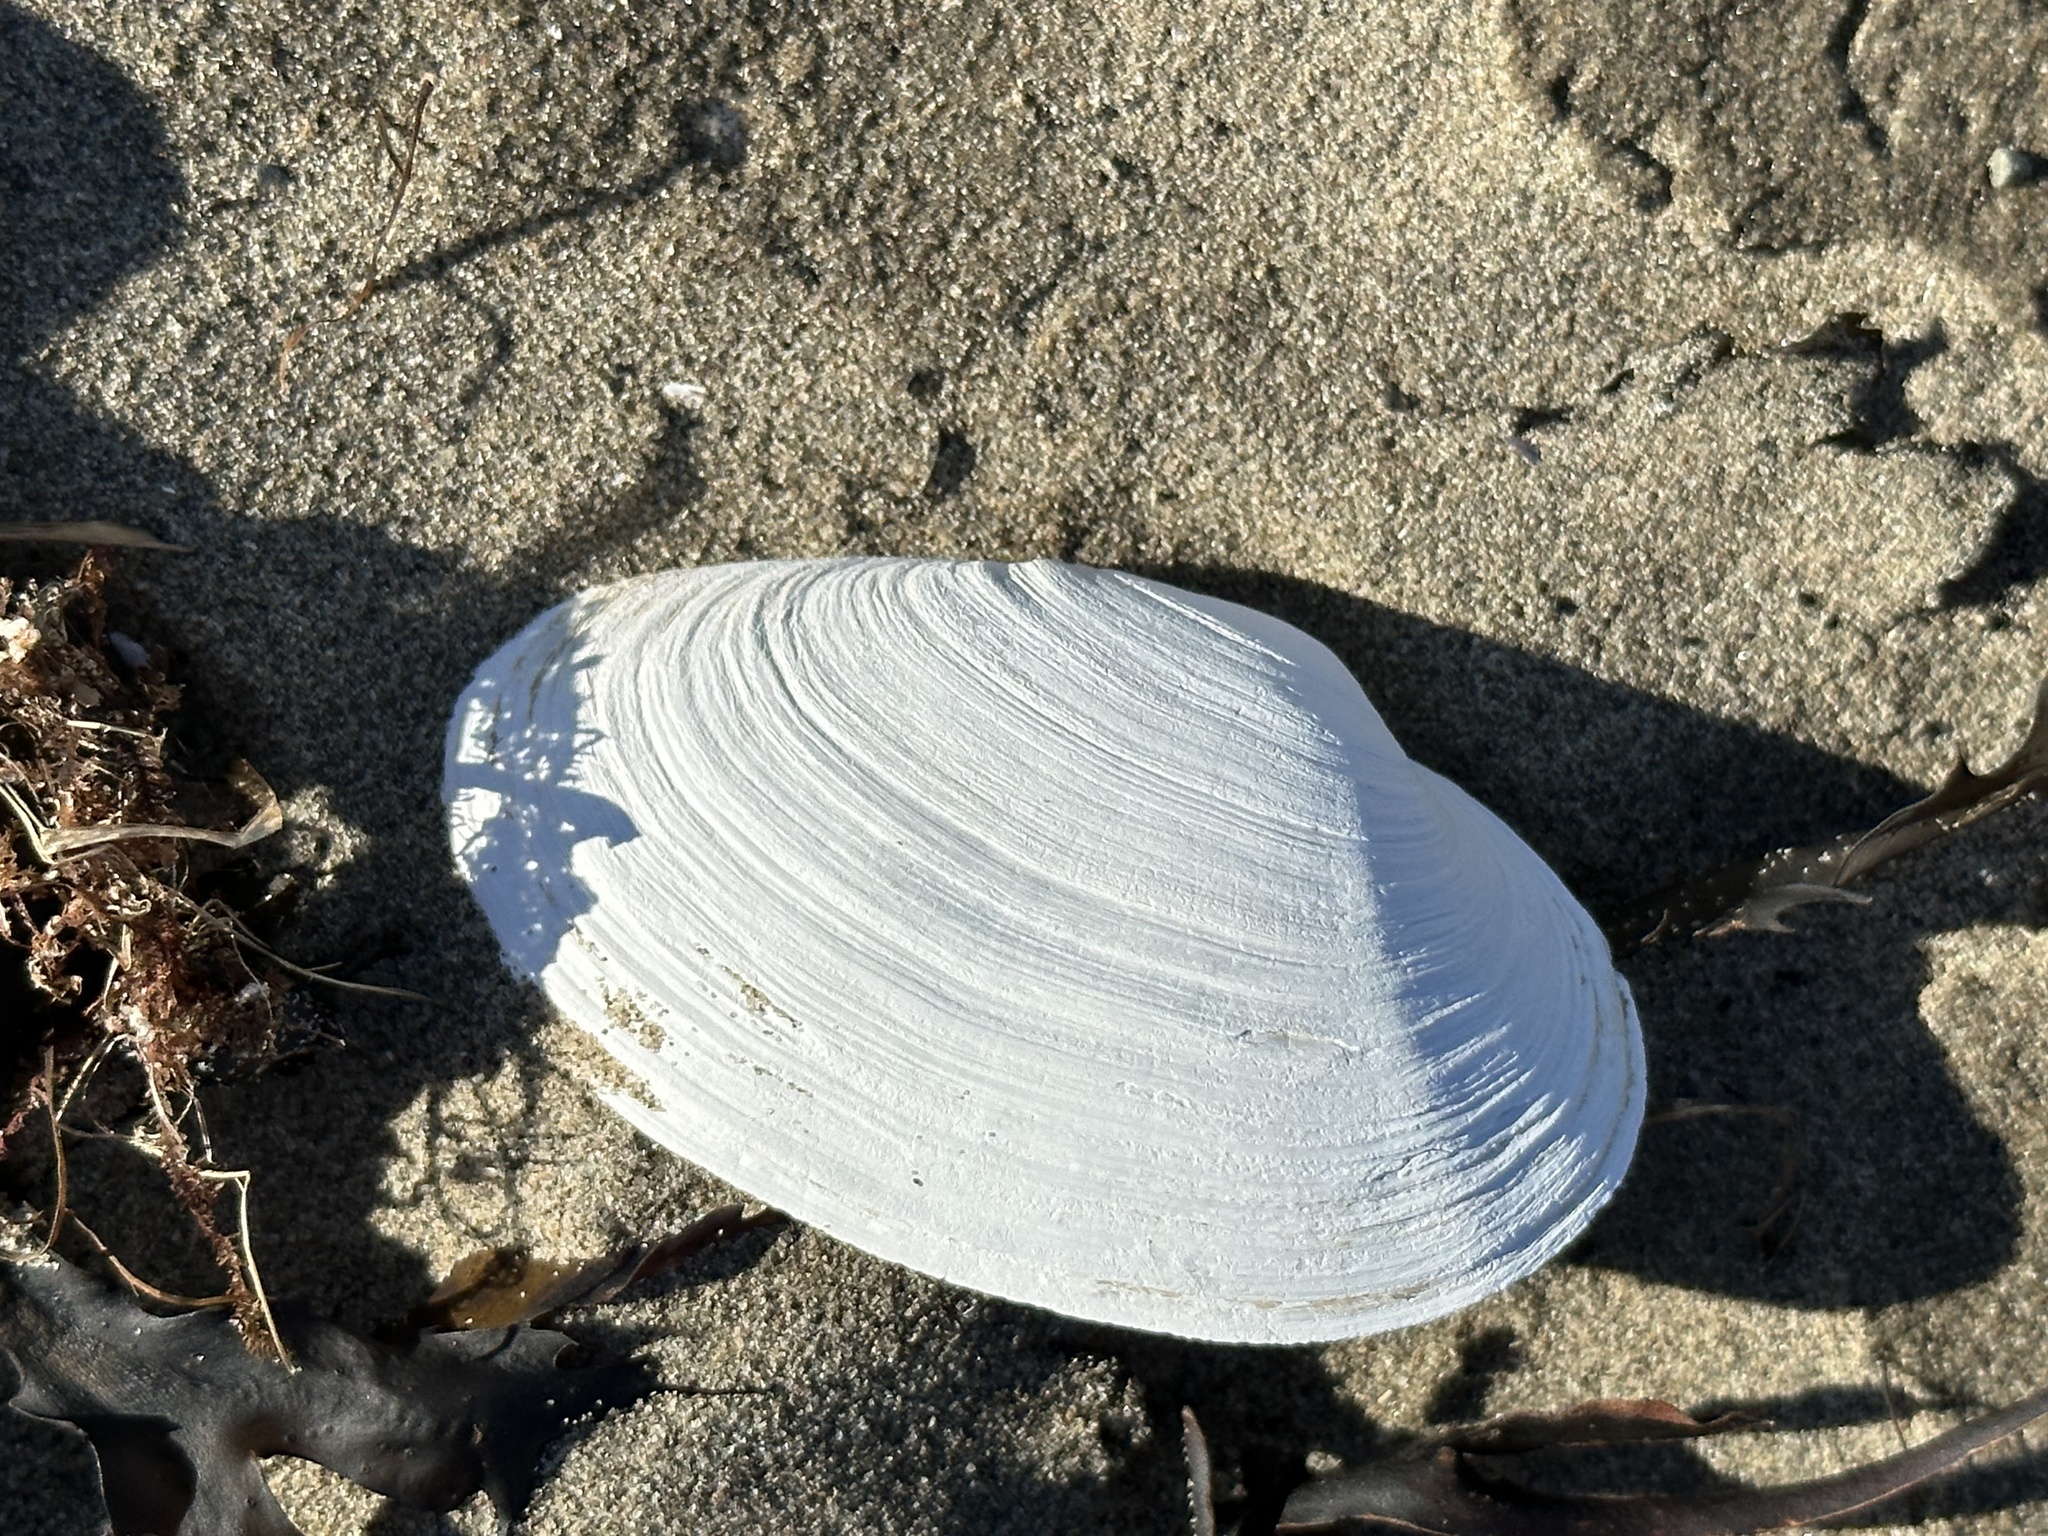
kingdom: Animalia
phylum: Mollusca
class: Bivalvia
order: Myida
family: Myidae
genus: Mya
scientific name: Mya arenaria
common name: Soft-shelled clam
